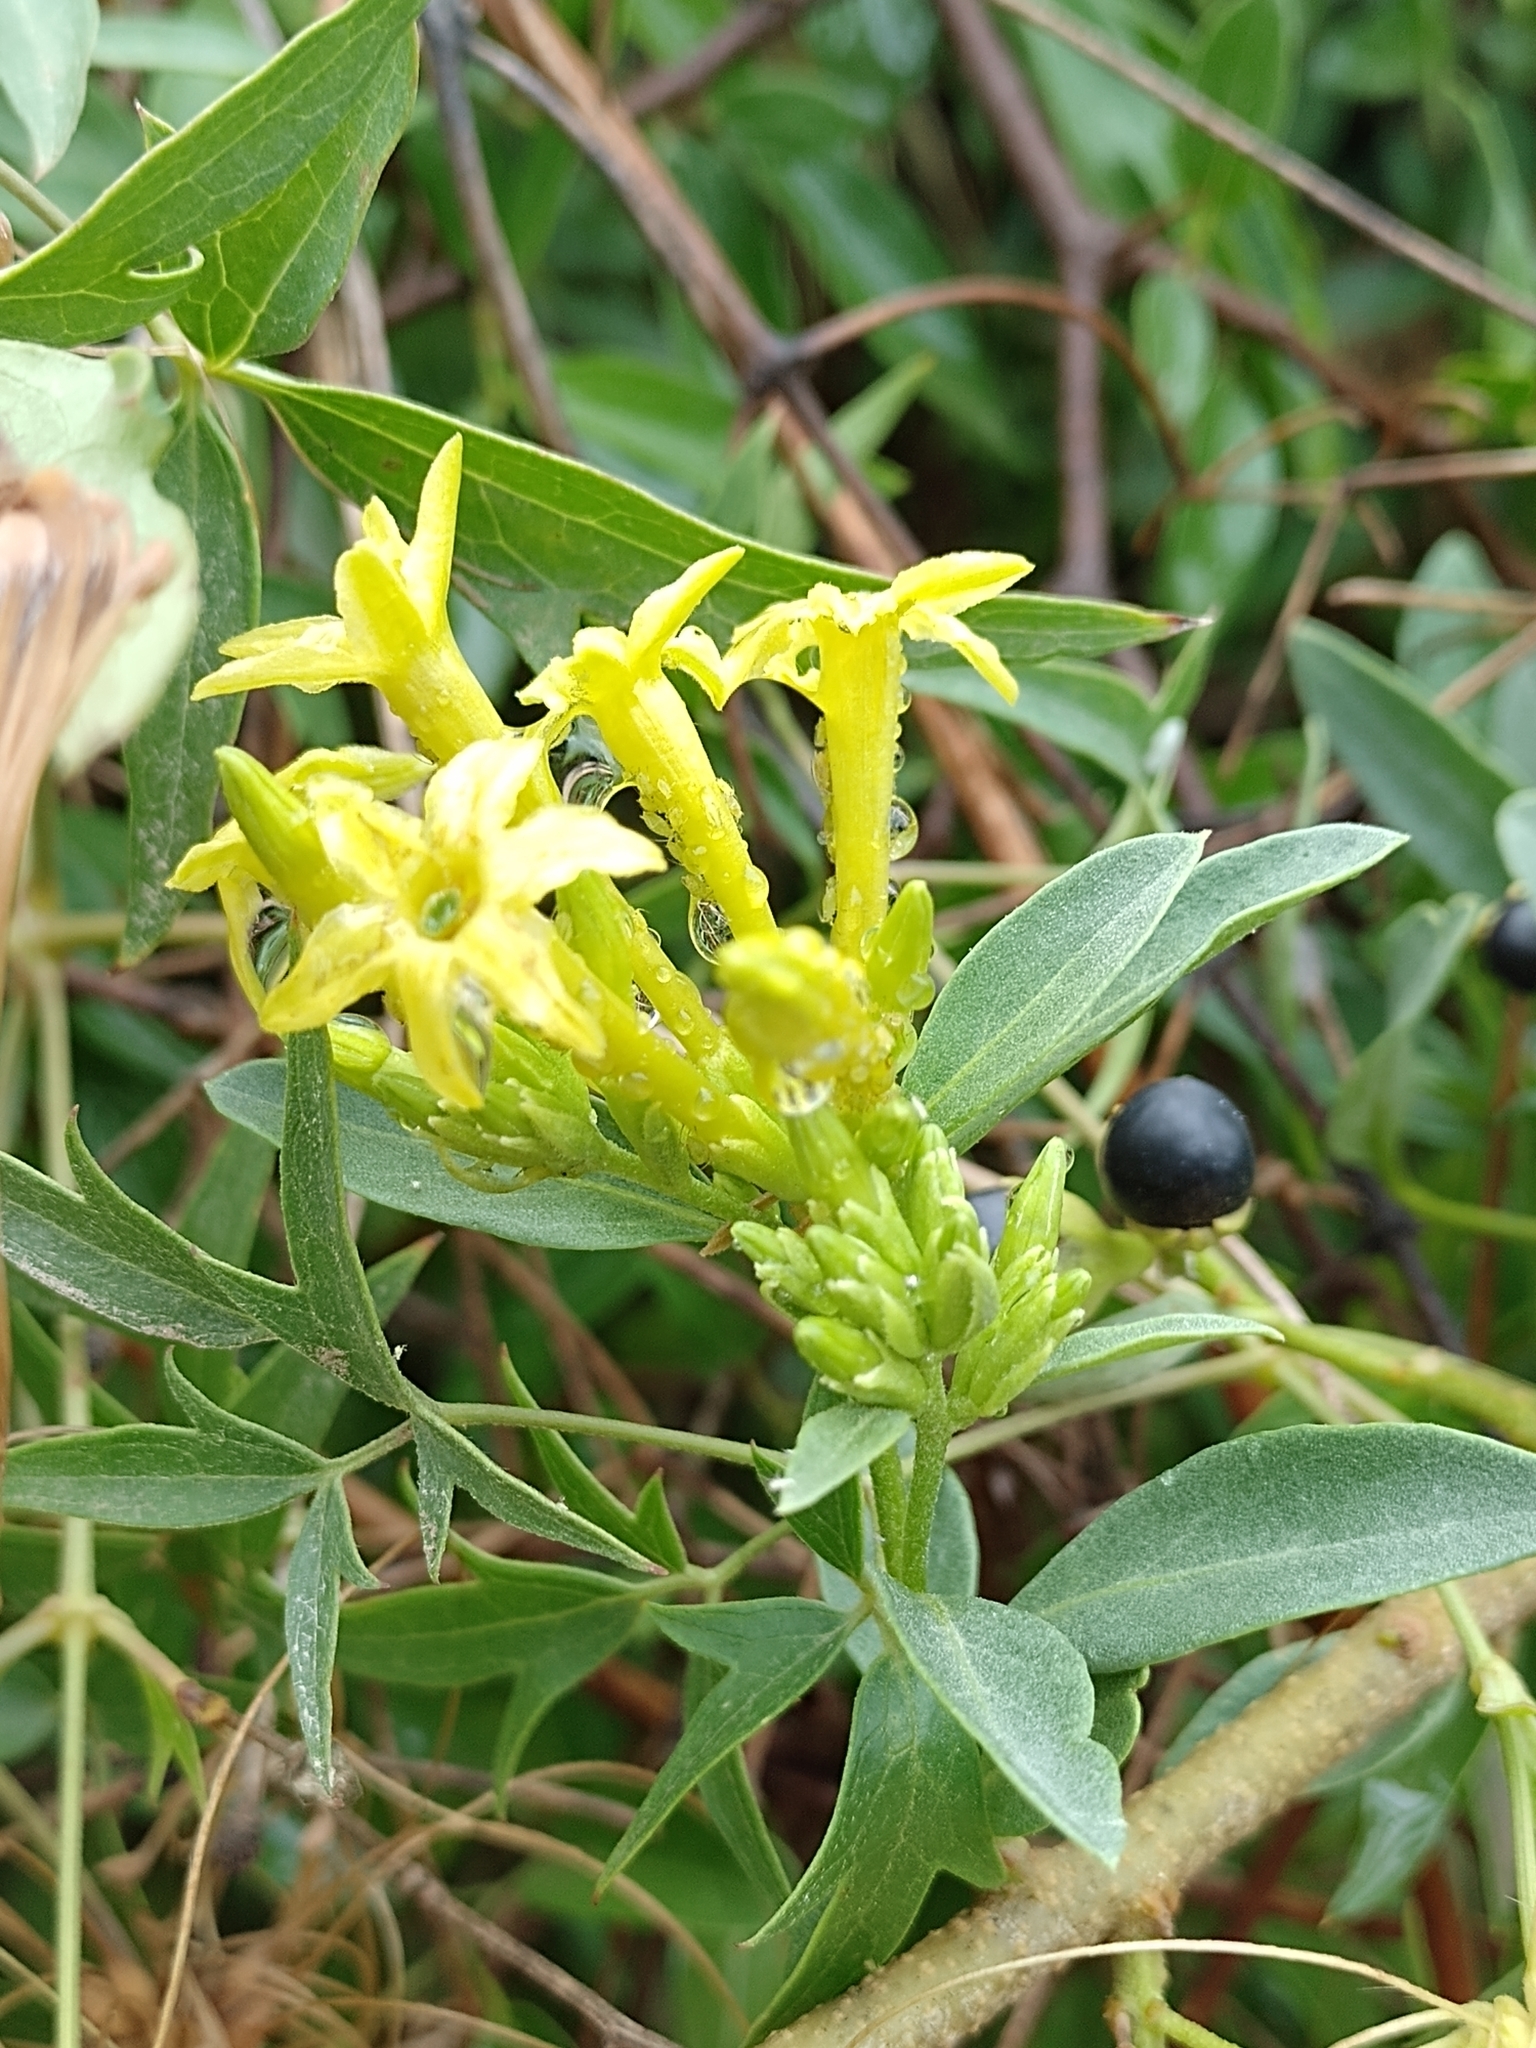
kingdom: Plantae
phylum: Tracheophyta
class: Magnoliopsida
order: Solanales
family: Solanaceae
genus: Cestrum
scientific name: Cestrum parqui
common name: Chilean cestrum
